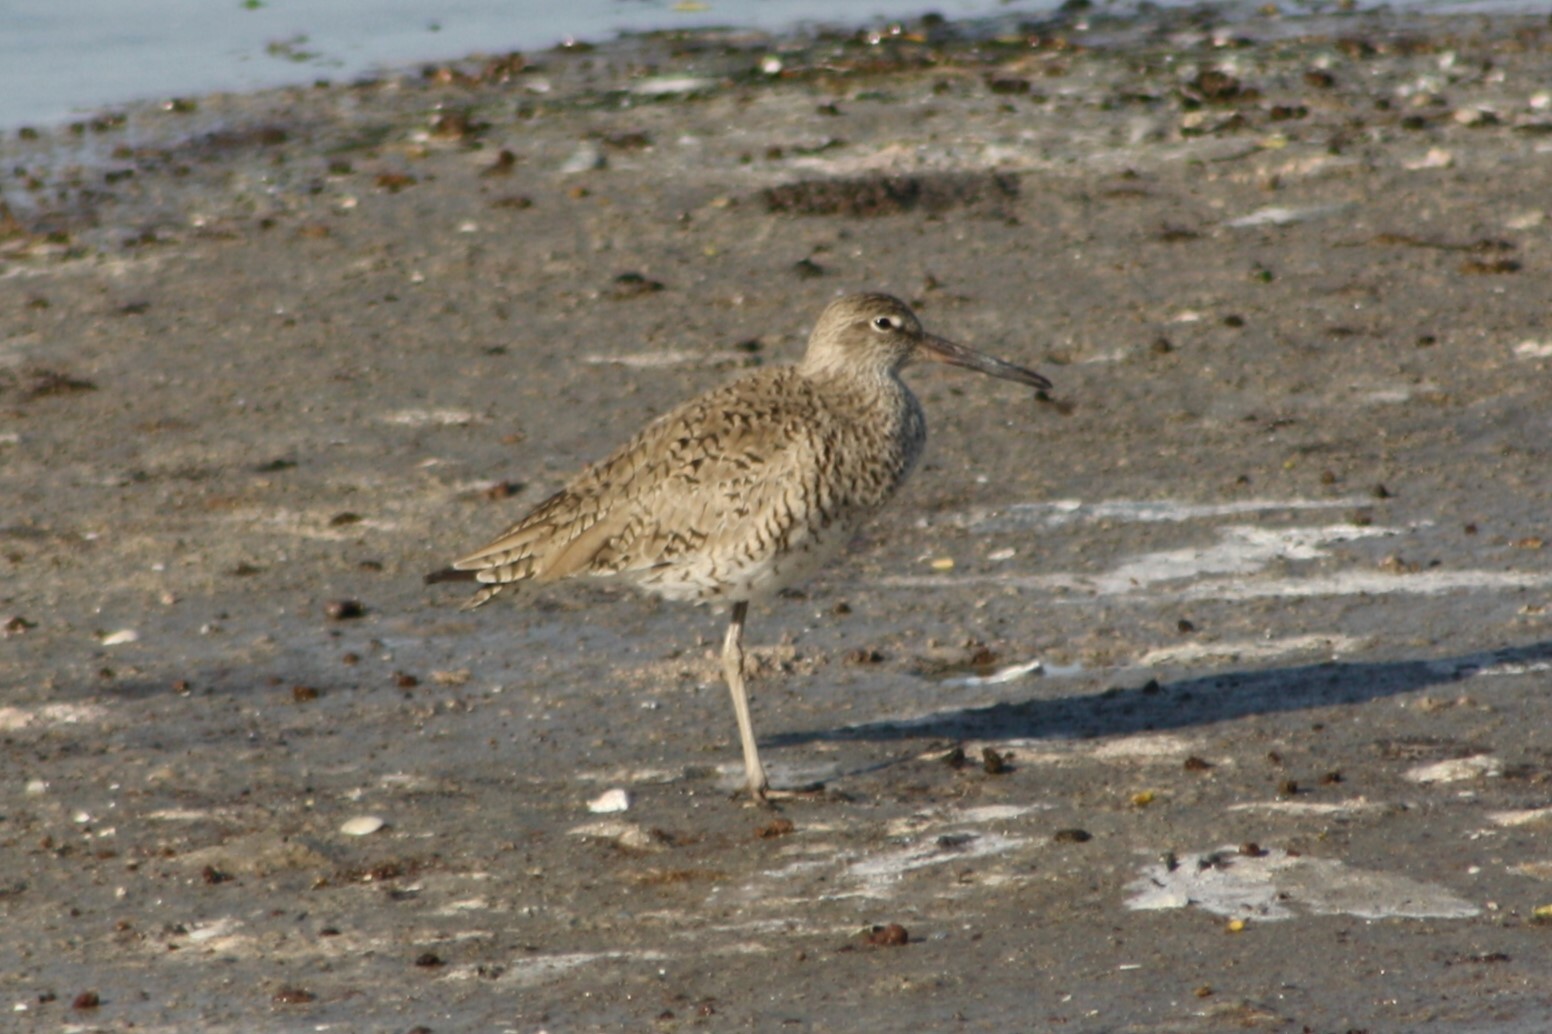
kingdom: Animalia
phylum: Chordata
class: Aves
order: Charadriiformes
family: Scolopacidae
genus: Tringa
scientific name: Tringa semipalmata
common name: Willet
